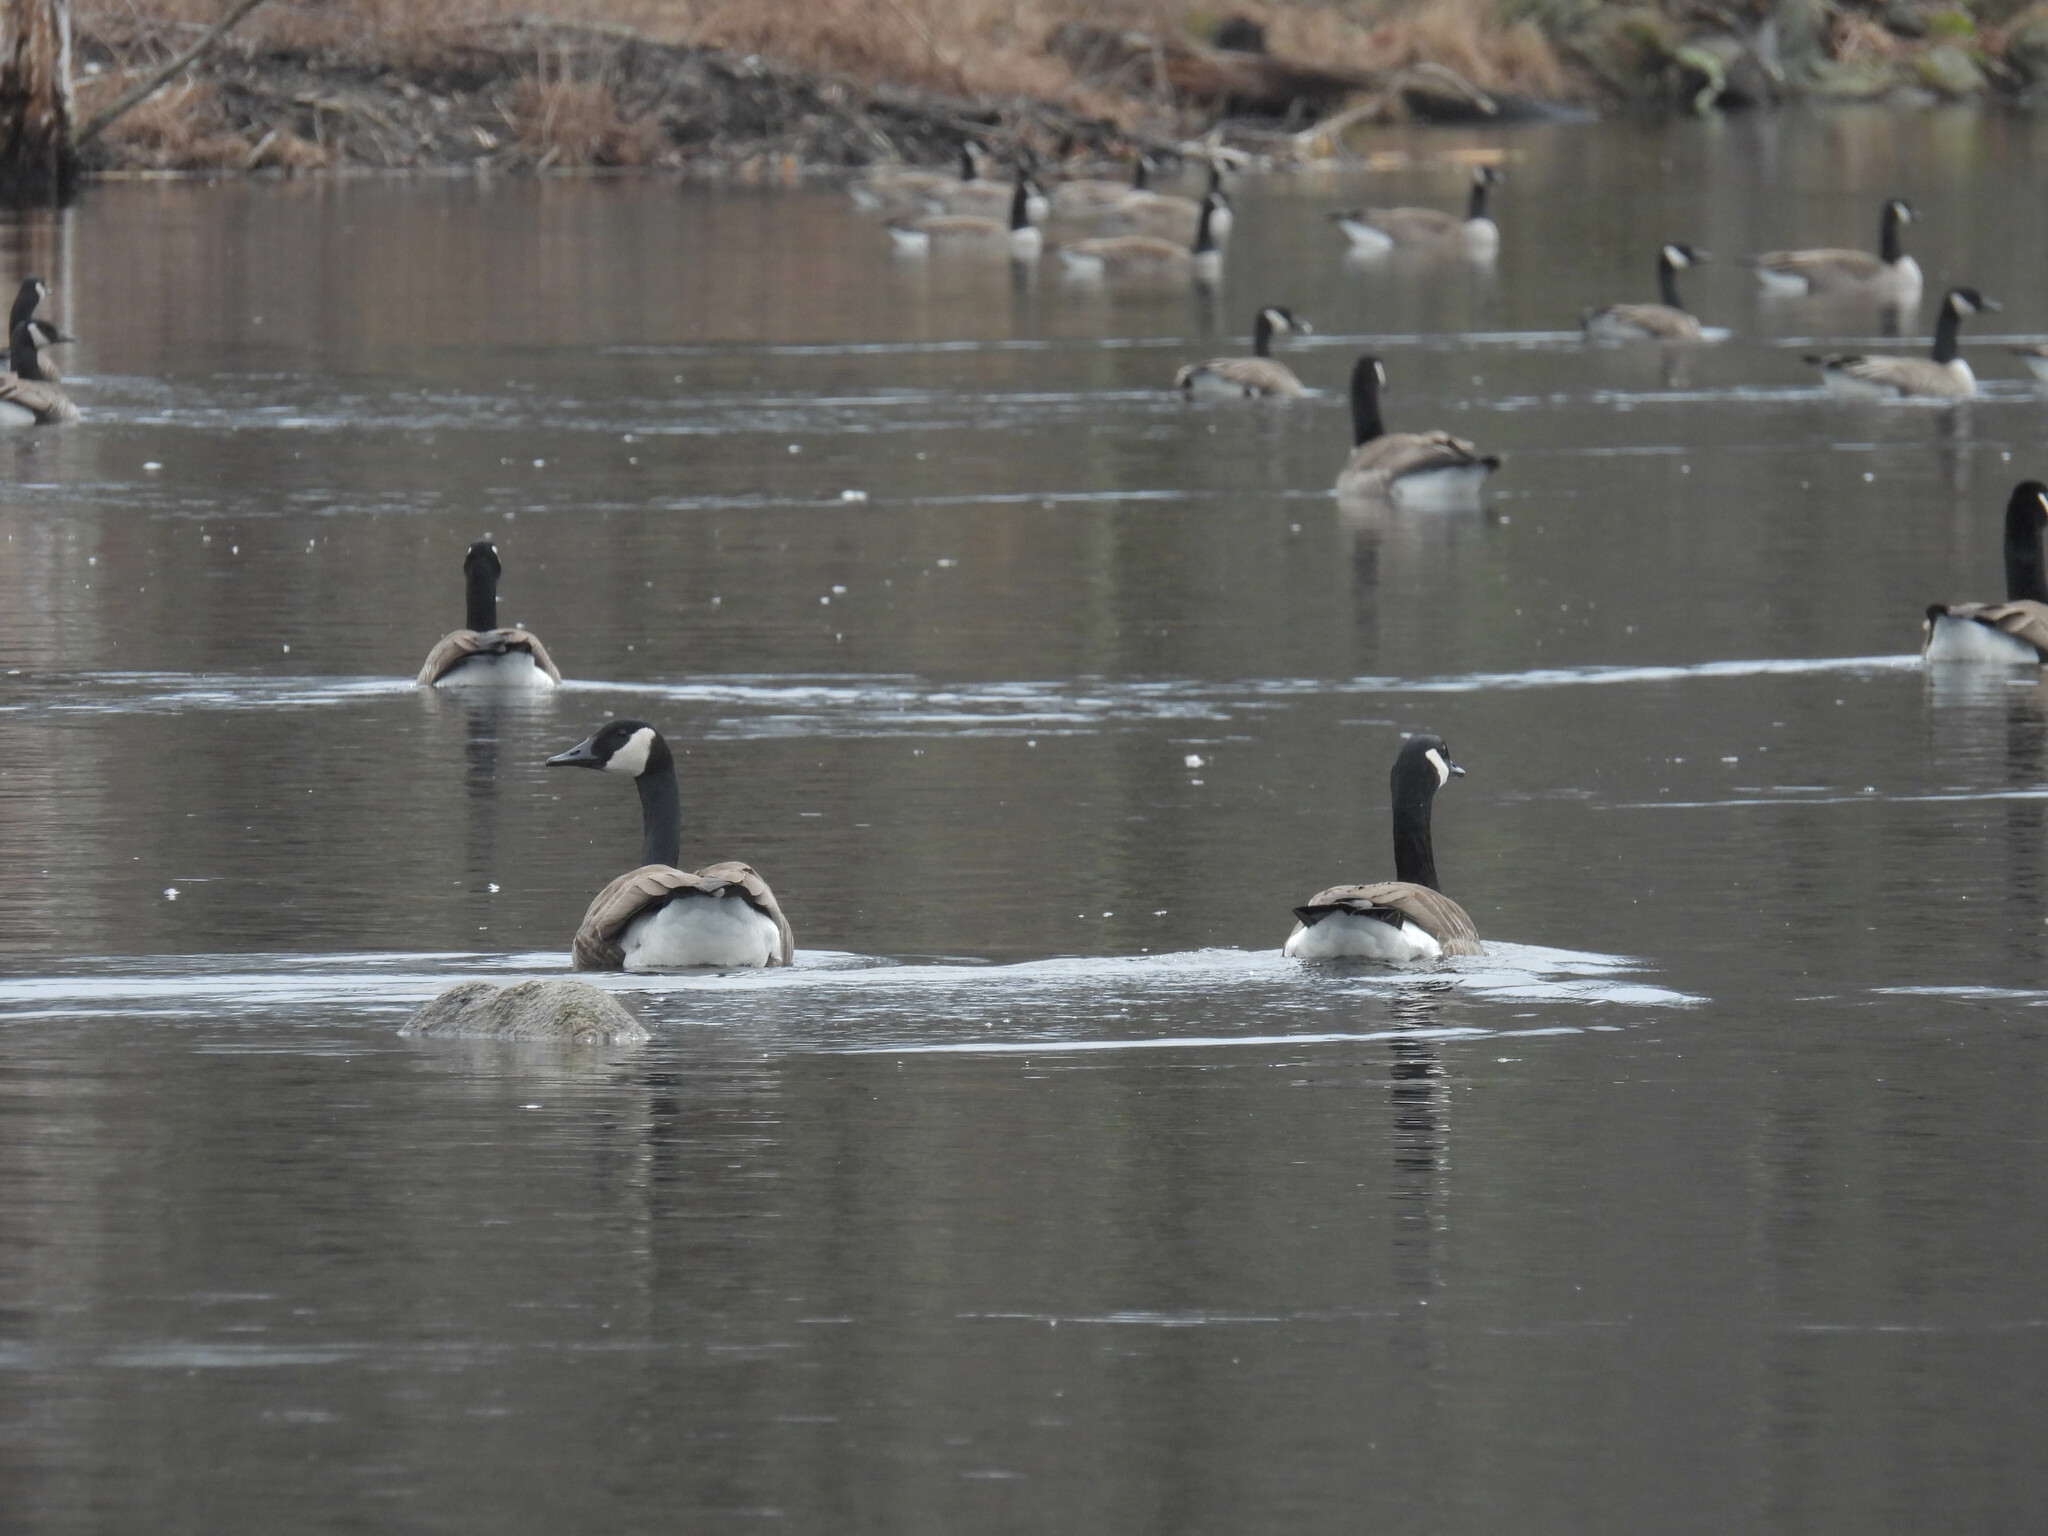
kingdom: Animalia
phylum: Chordata
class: Aves
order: Anseriformes
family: Anatidae
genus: Branta
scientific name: Branta canadensis
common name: Canada goose
